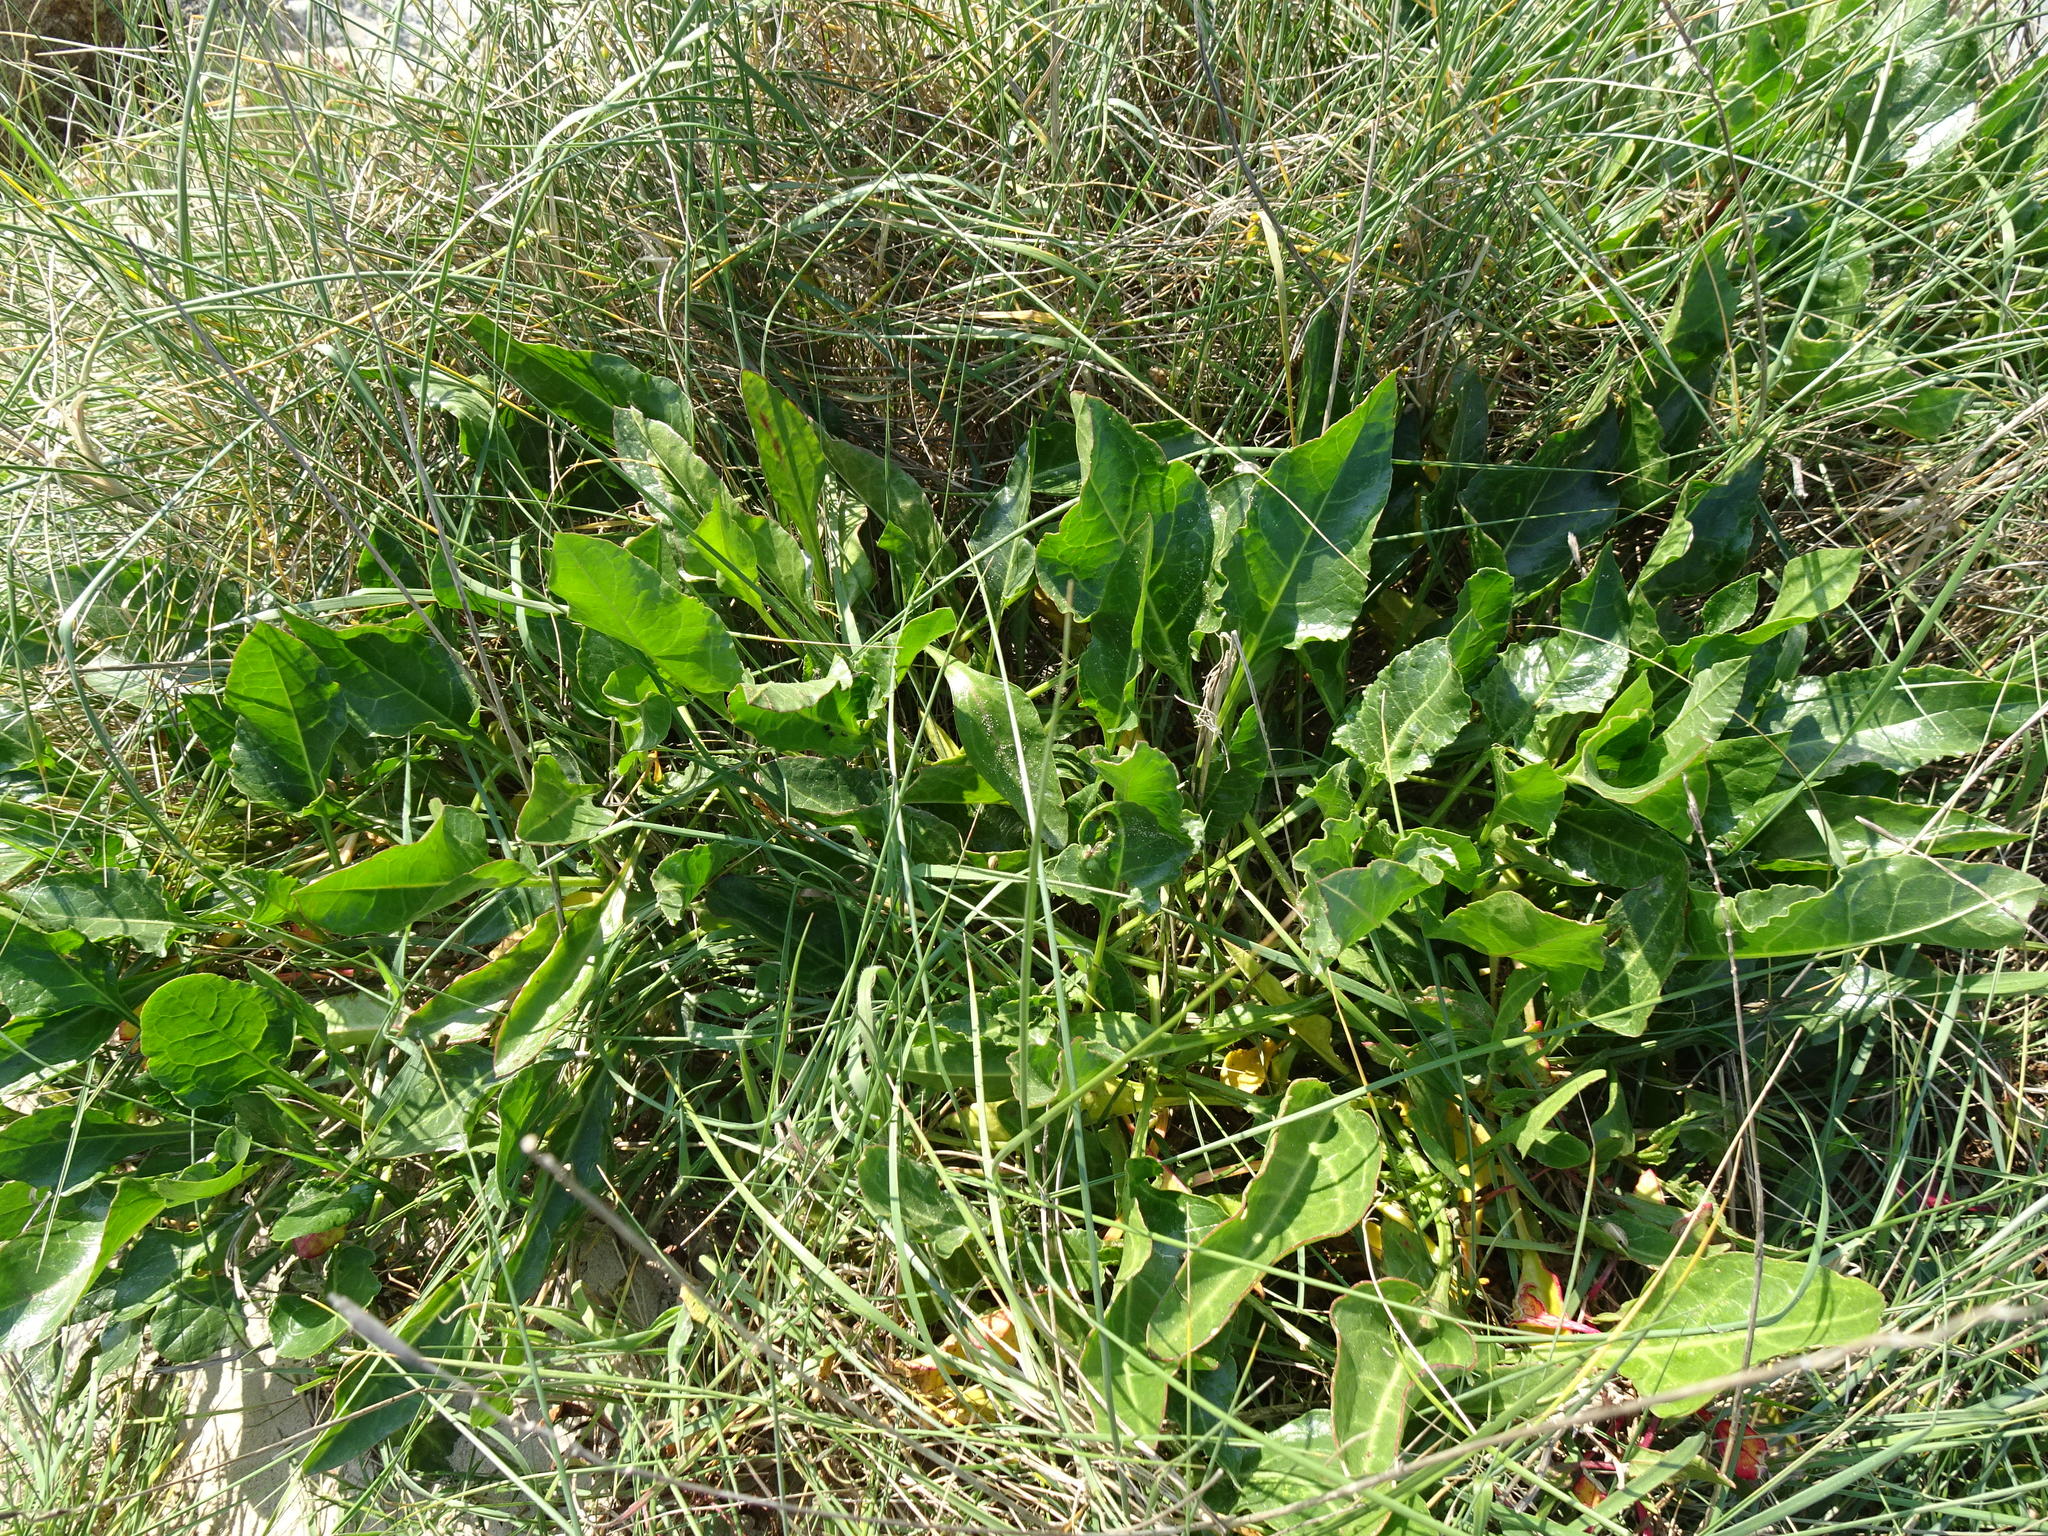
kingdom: Plantae
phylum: Tracheophyta
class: Magnoliopsida
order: Caryophyllales
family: Amaranthaceae
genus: Beta
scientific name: Beta vulgaris
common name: Beet
